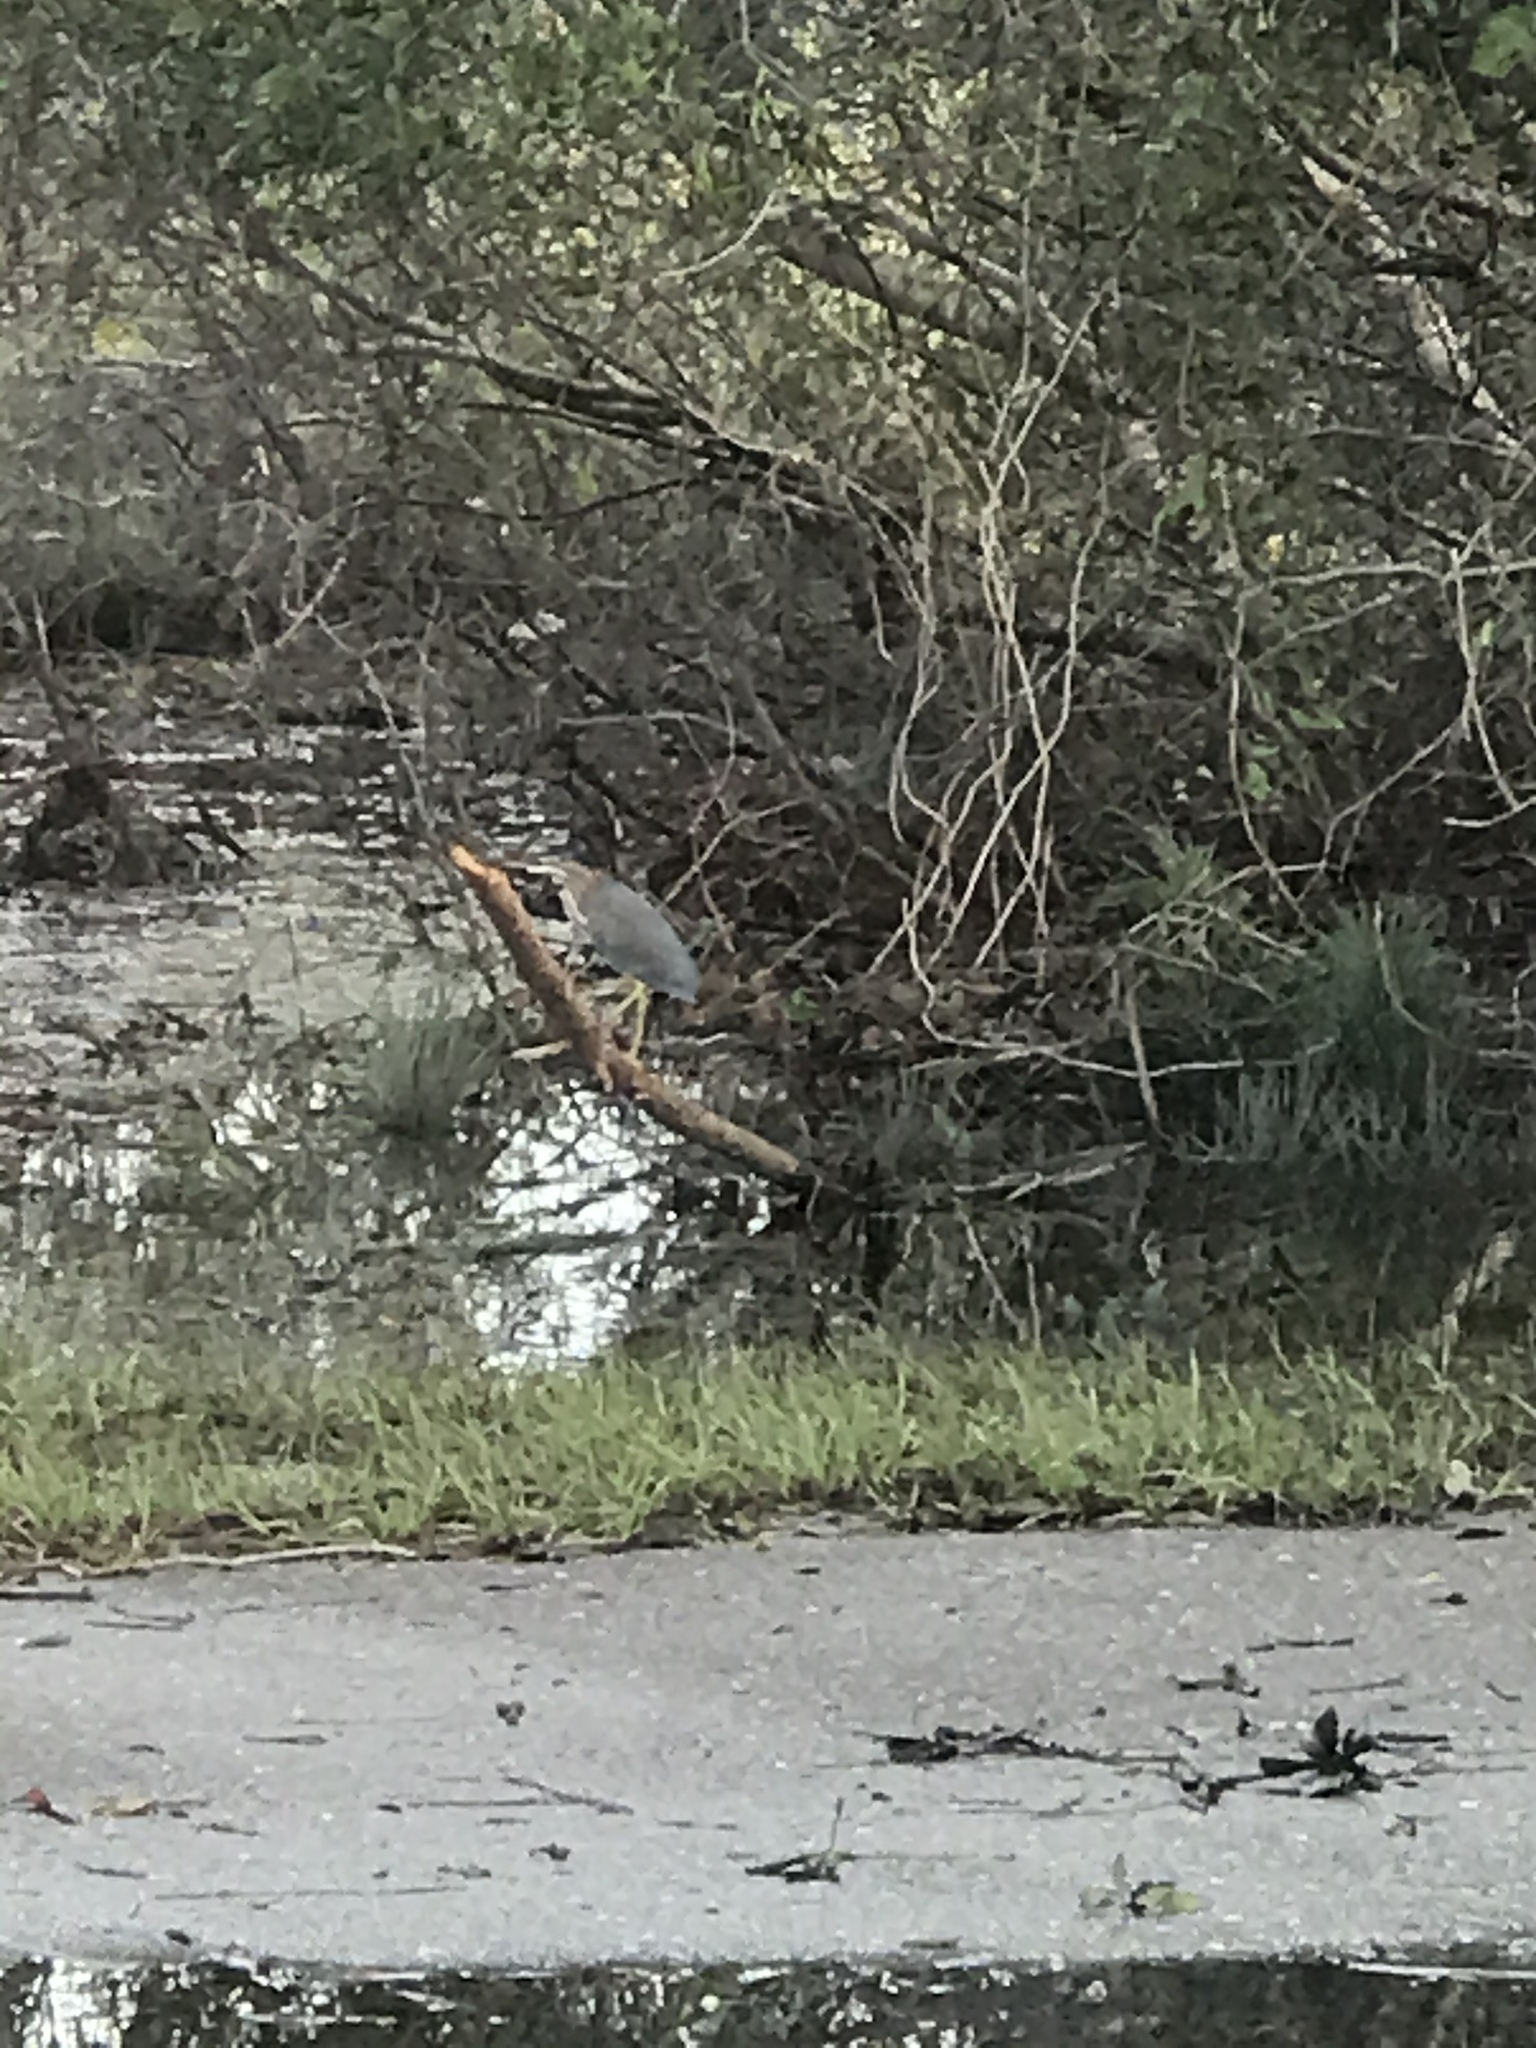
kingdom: Animalia
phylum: Chordata
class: Aves
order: Pelecaniformes
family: Ardeidae
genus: Butorides
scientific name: Butorides virescens
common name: Green heron
